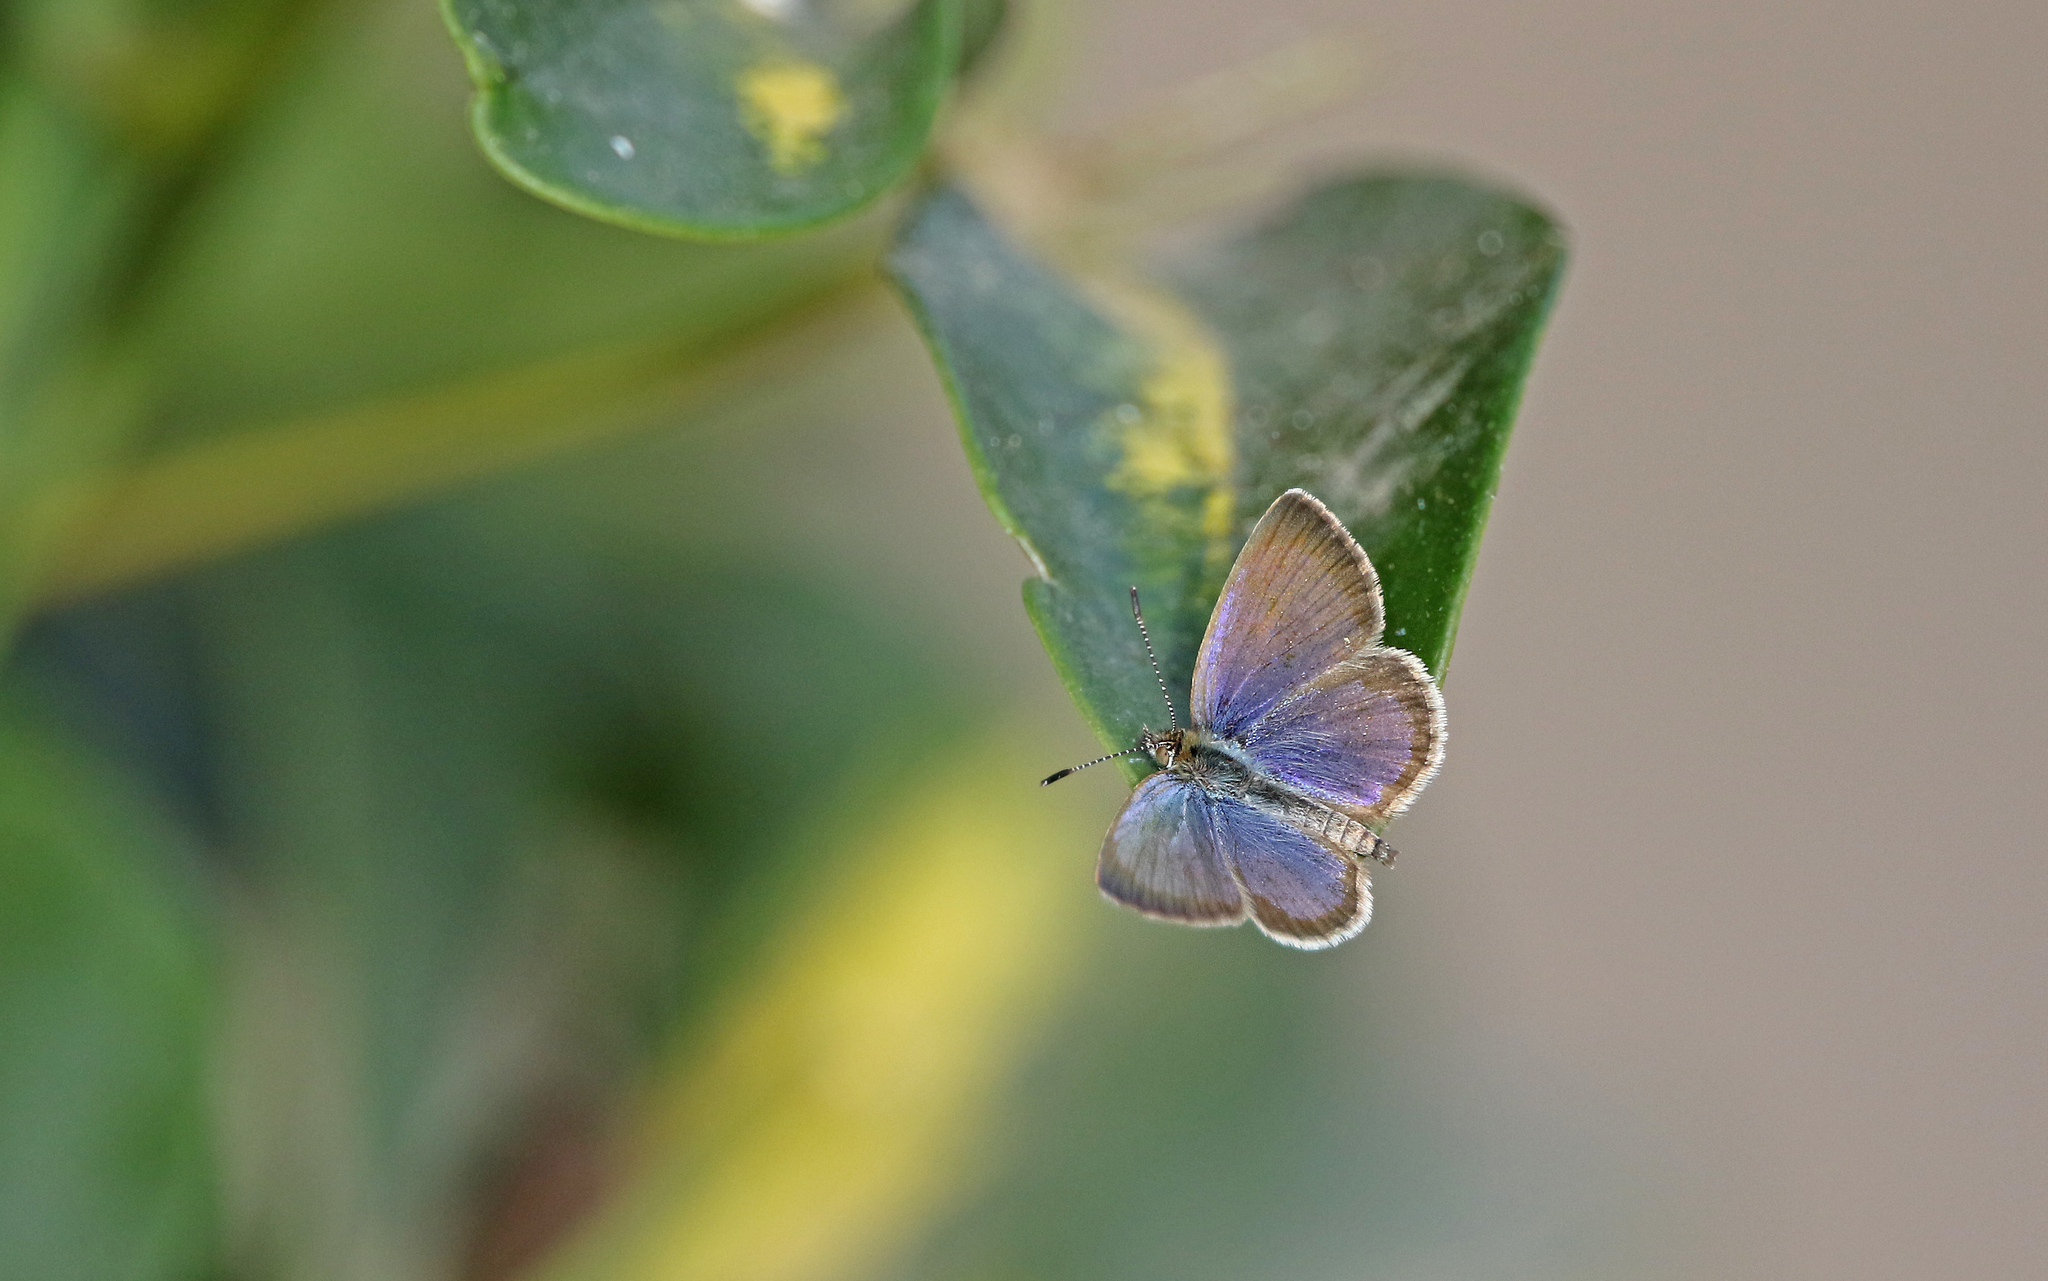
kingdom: Animalia
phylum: Arthropoda
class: Insecta
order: Lepidoptera
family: Lycaenidae
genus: Zizeeria
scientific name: Zizeeria knysna
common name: African grass blue
